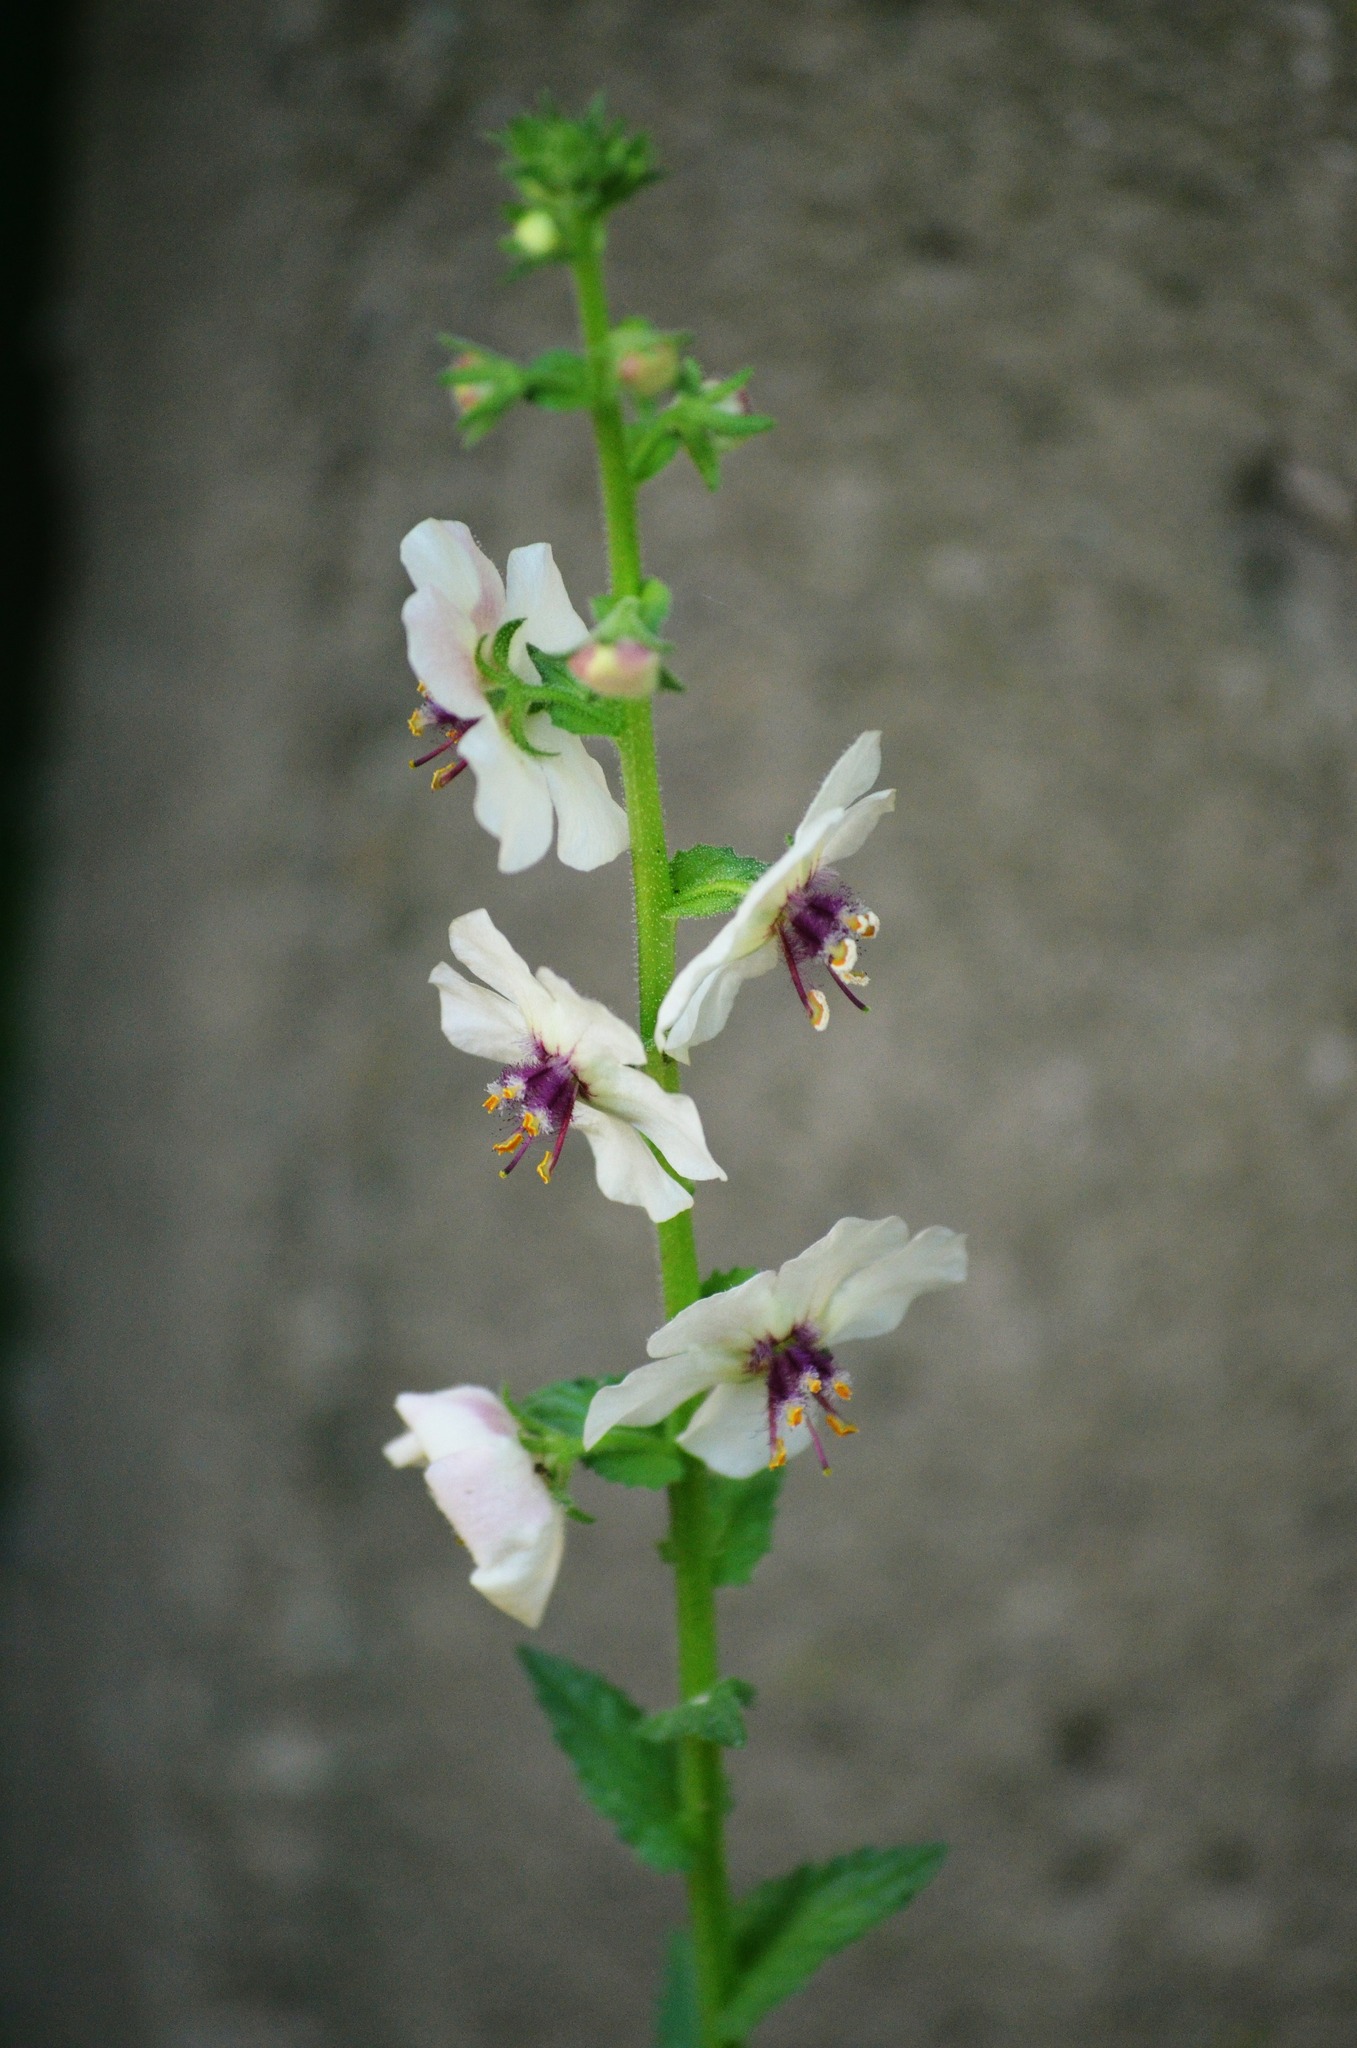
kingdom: Plantae
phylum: Tracheophyta
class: Magnoliopsida
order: Lamiales
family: Scrophulariaceae
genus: Verbascum
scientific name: Verbascum blattaria
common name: Moth mullein
